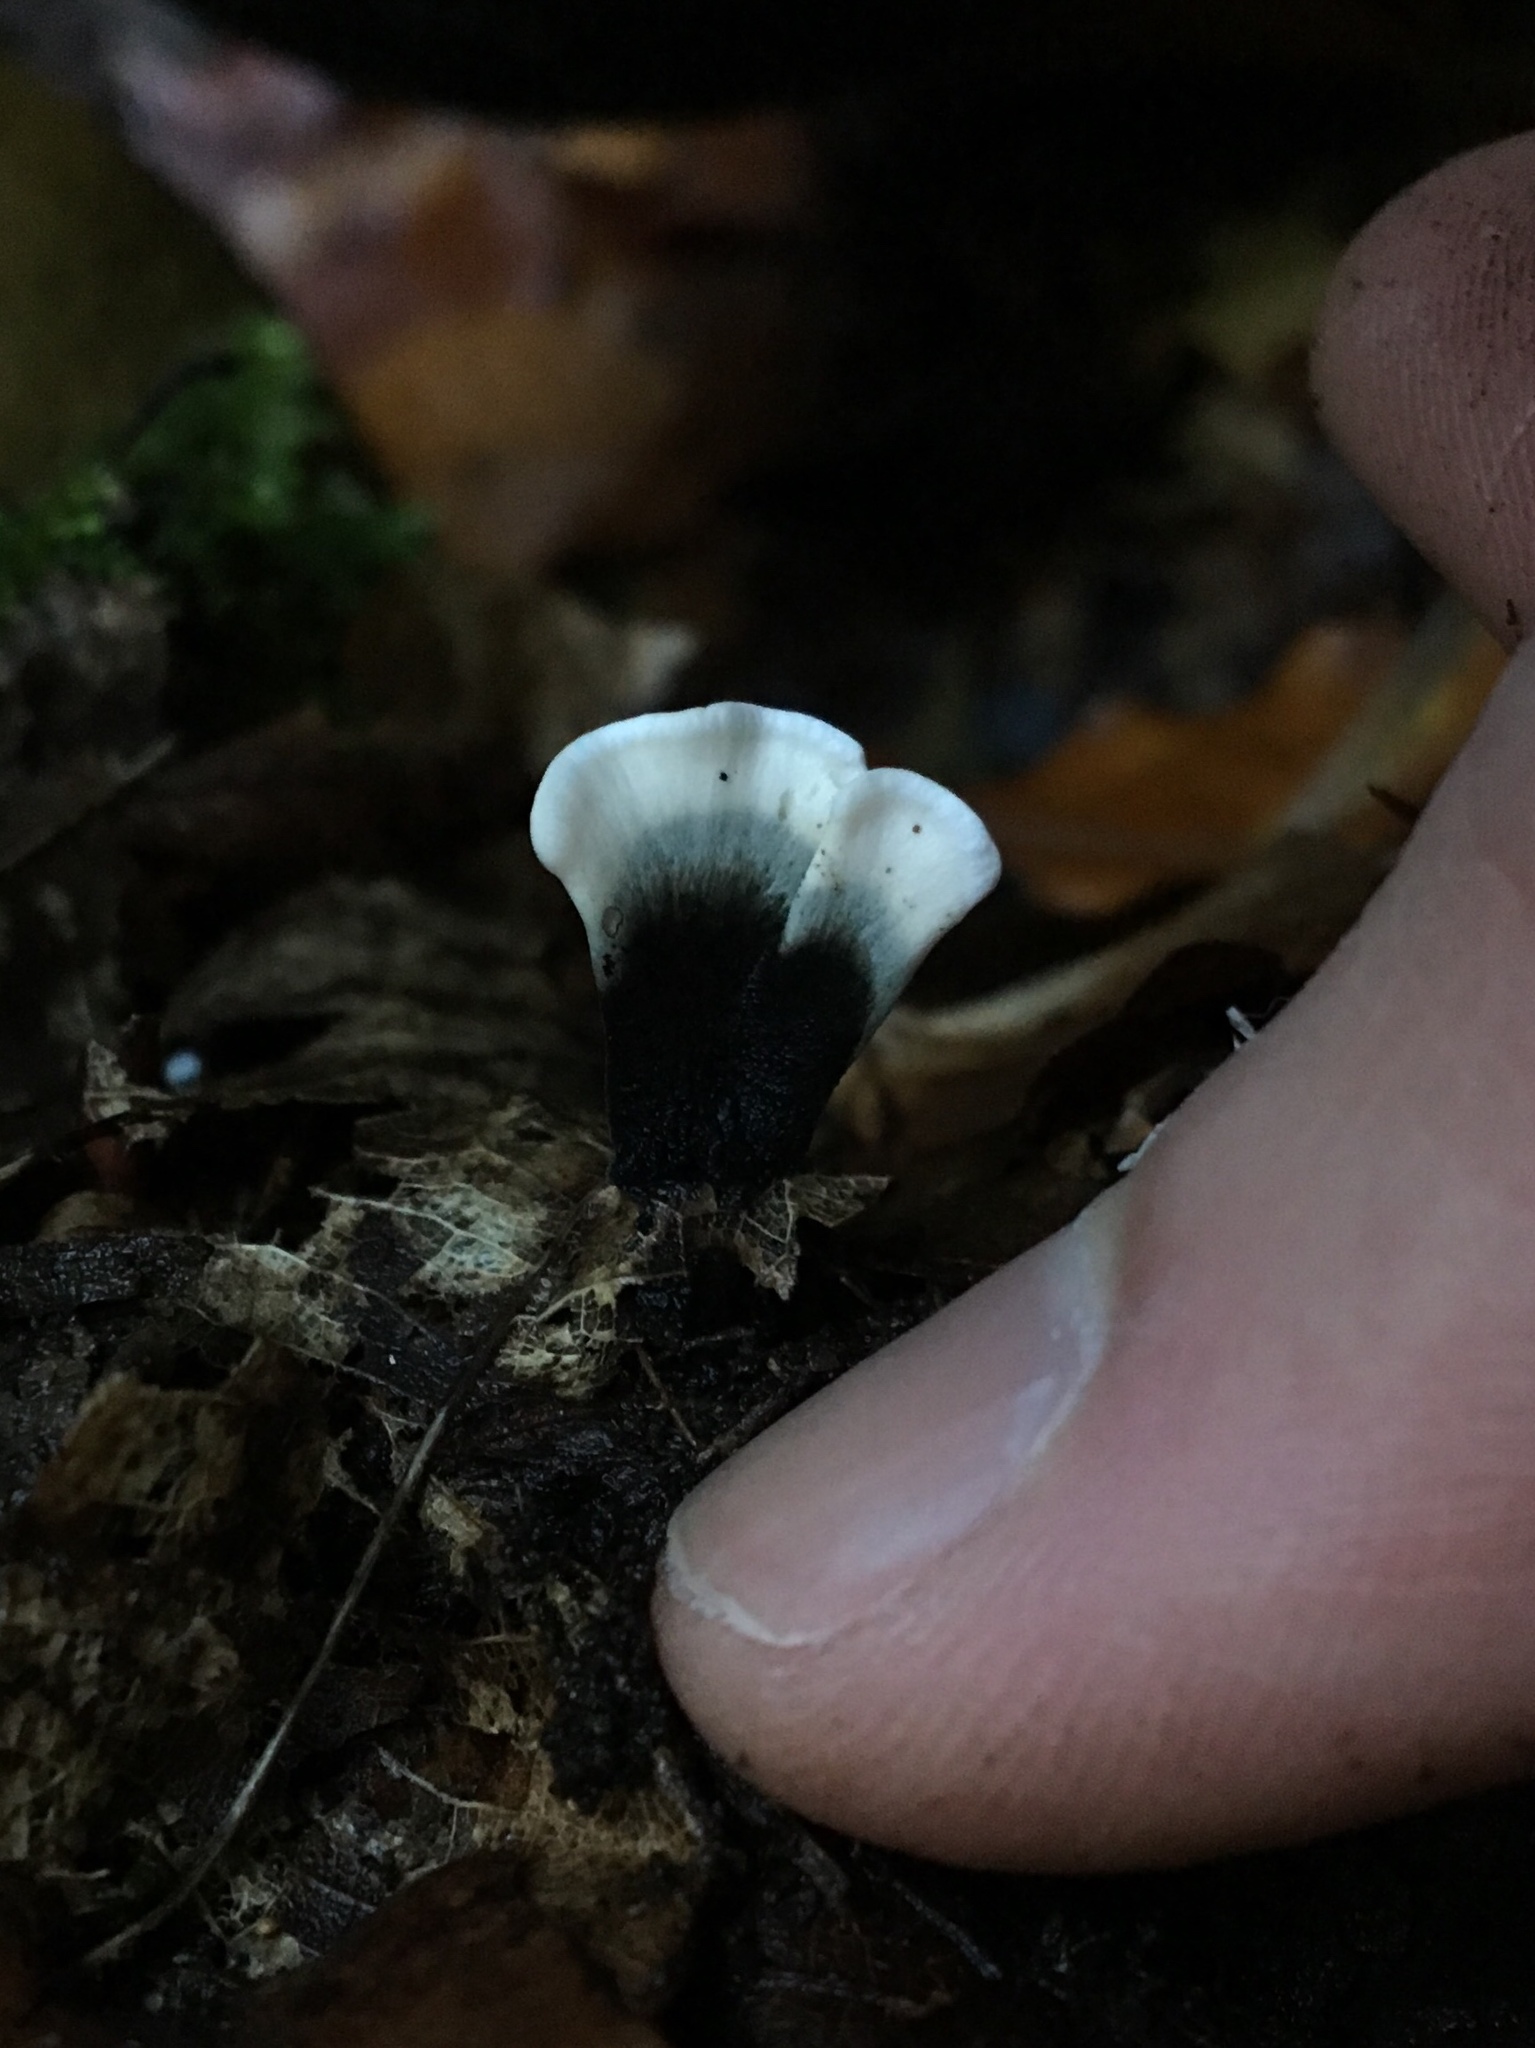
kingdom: Fungi
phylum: Ascomycota
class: Sordariomycetes
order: Xylariales
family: Xylariaceae
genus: Xylaria
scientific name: Xylaria hypoxylon
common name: Candle-snuff fungus
